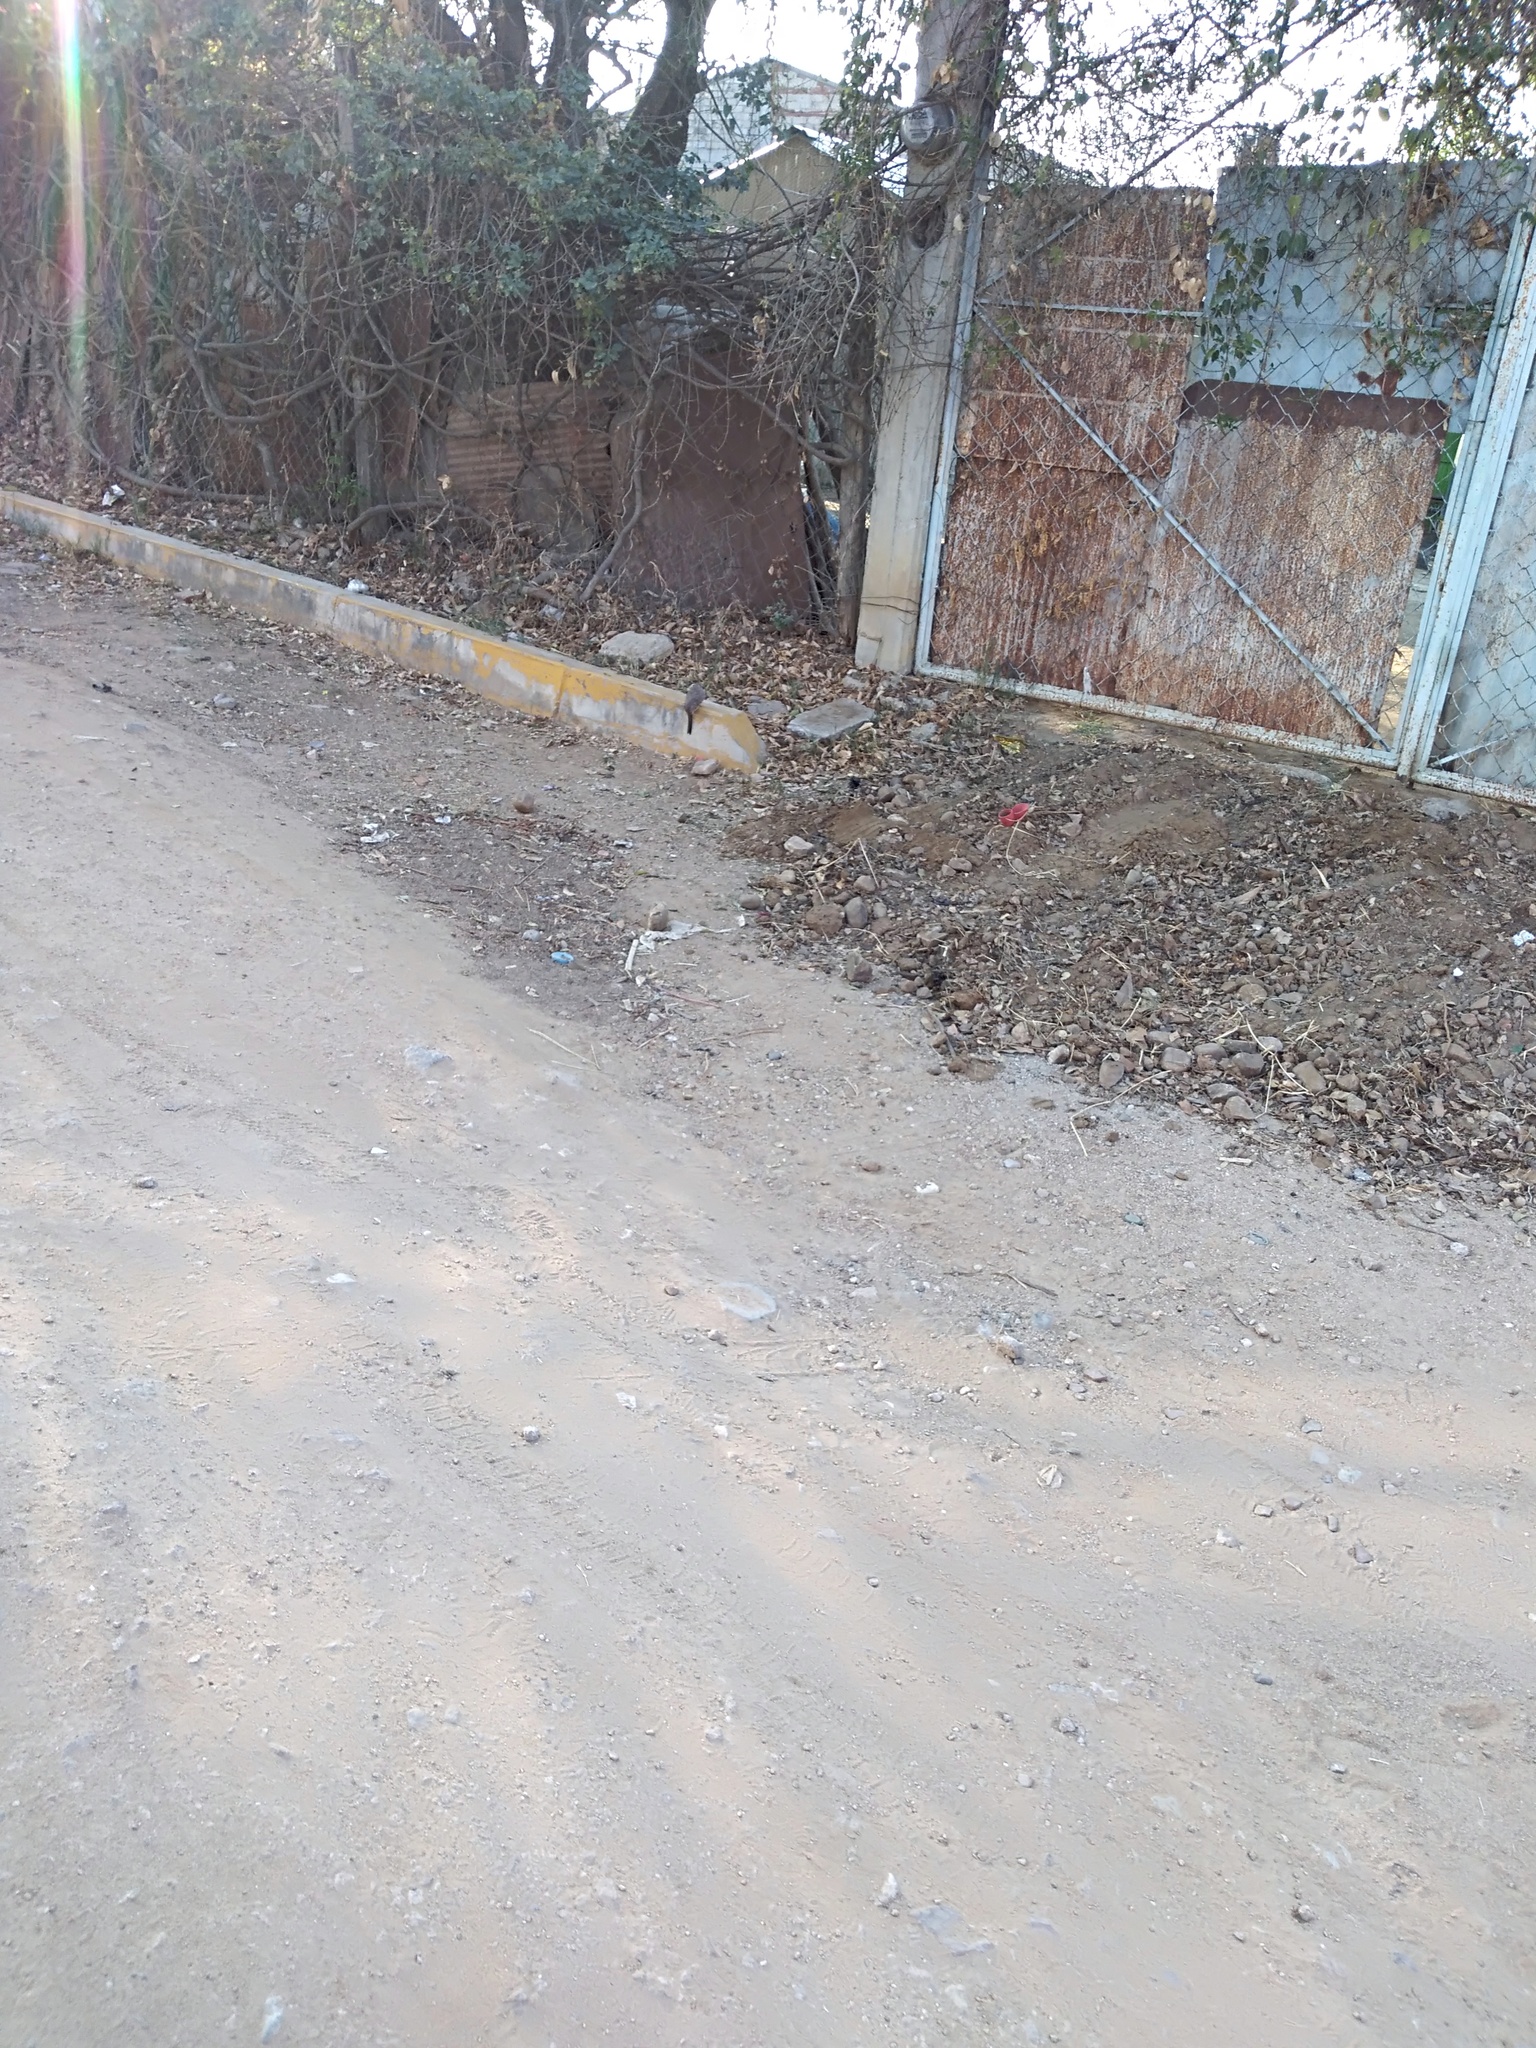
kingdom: Animalia
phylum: Chordata
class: Aves
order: Columbiformes
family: Columbidae
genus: Columbina
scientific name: Columbina inca
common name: Inca dove
